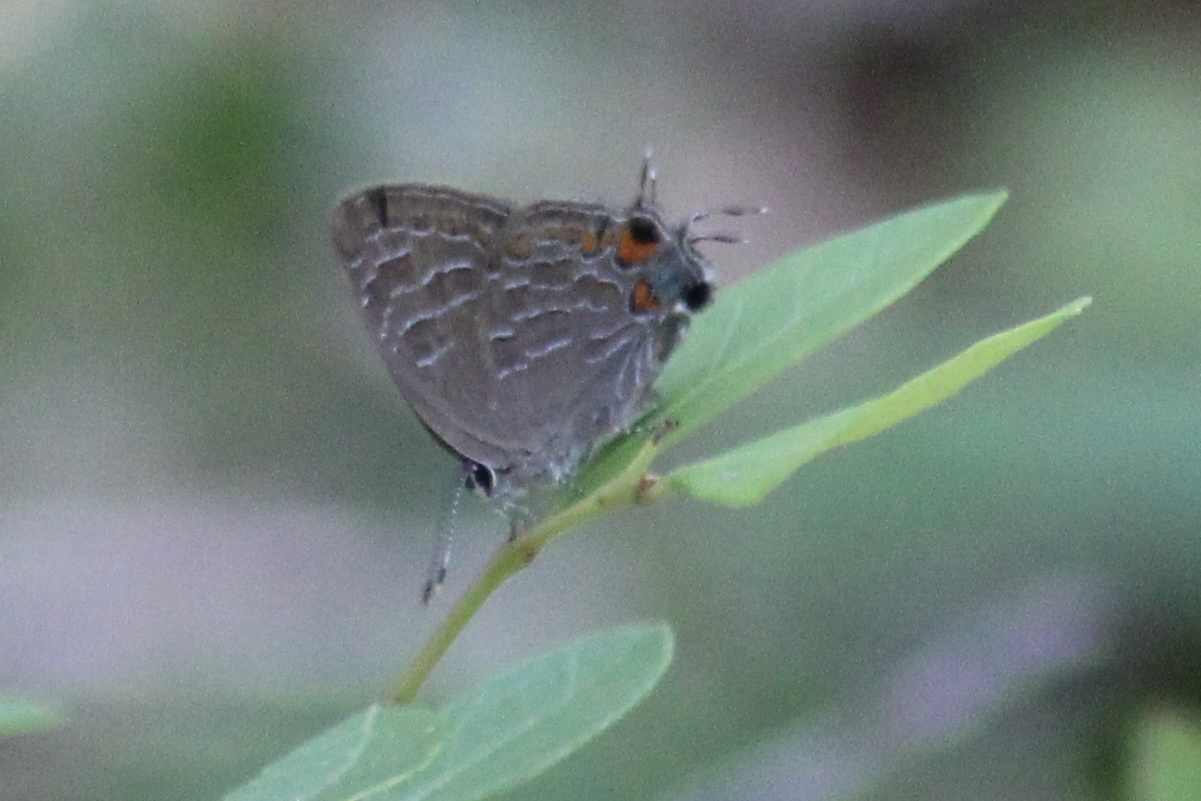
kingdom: Animalia
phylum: Arthropoda
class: Insecta
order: Lepidoptera
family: Lycaenidae
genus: Satyrium
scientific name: Satyrium liparops
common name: Striped hairstreak
